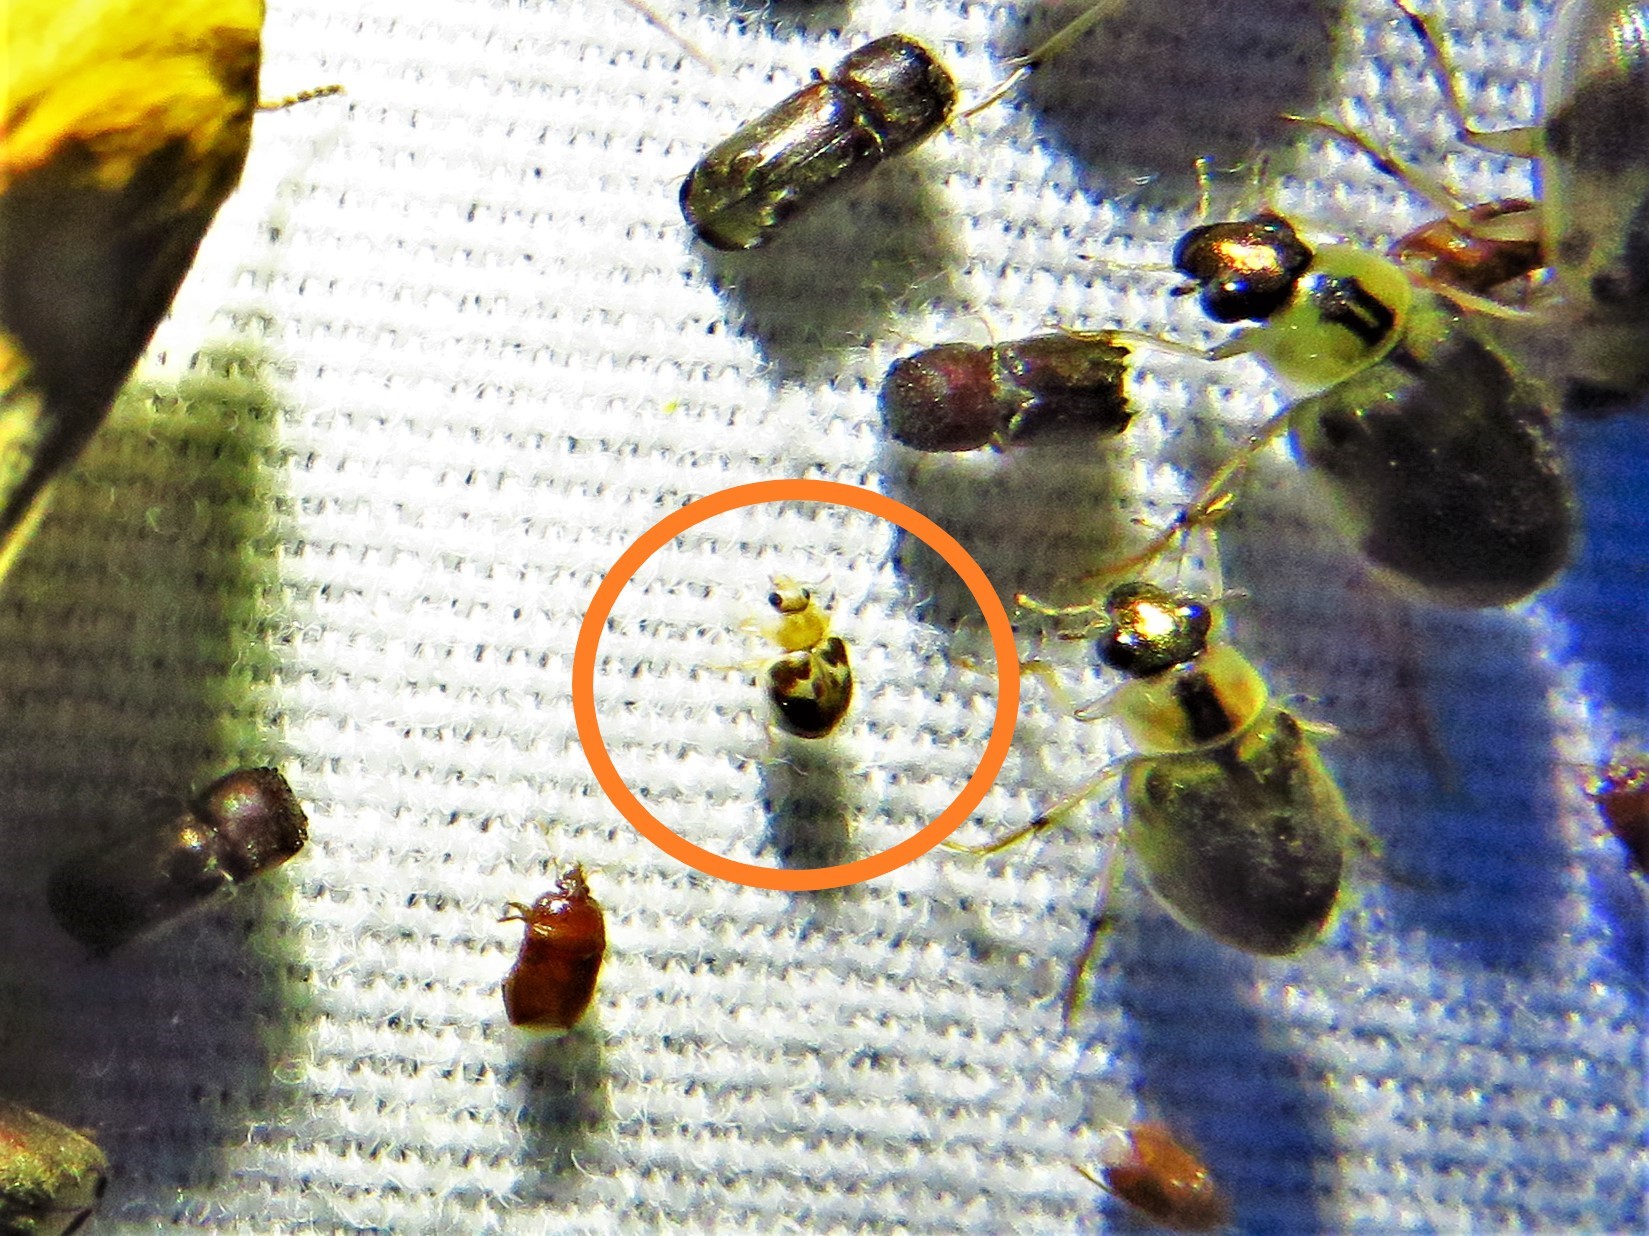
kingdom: Animalia
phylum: Arthropoda
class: Insecta
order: Coleoptera
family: Coccinellidae
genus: Psyllobora
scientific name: Psyllobora renifer
